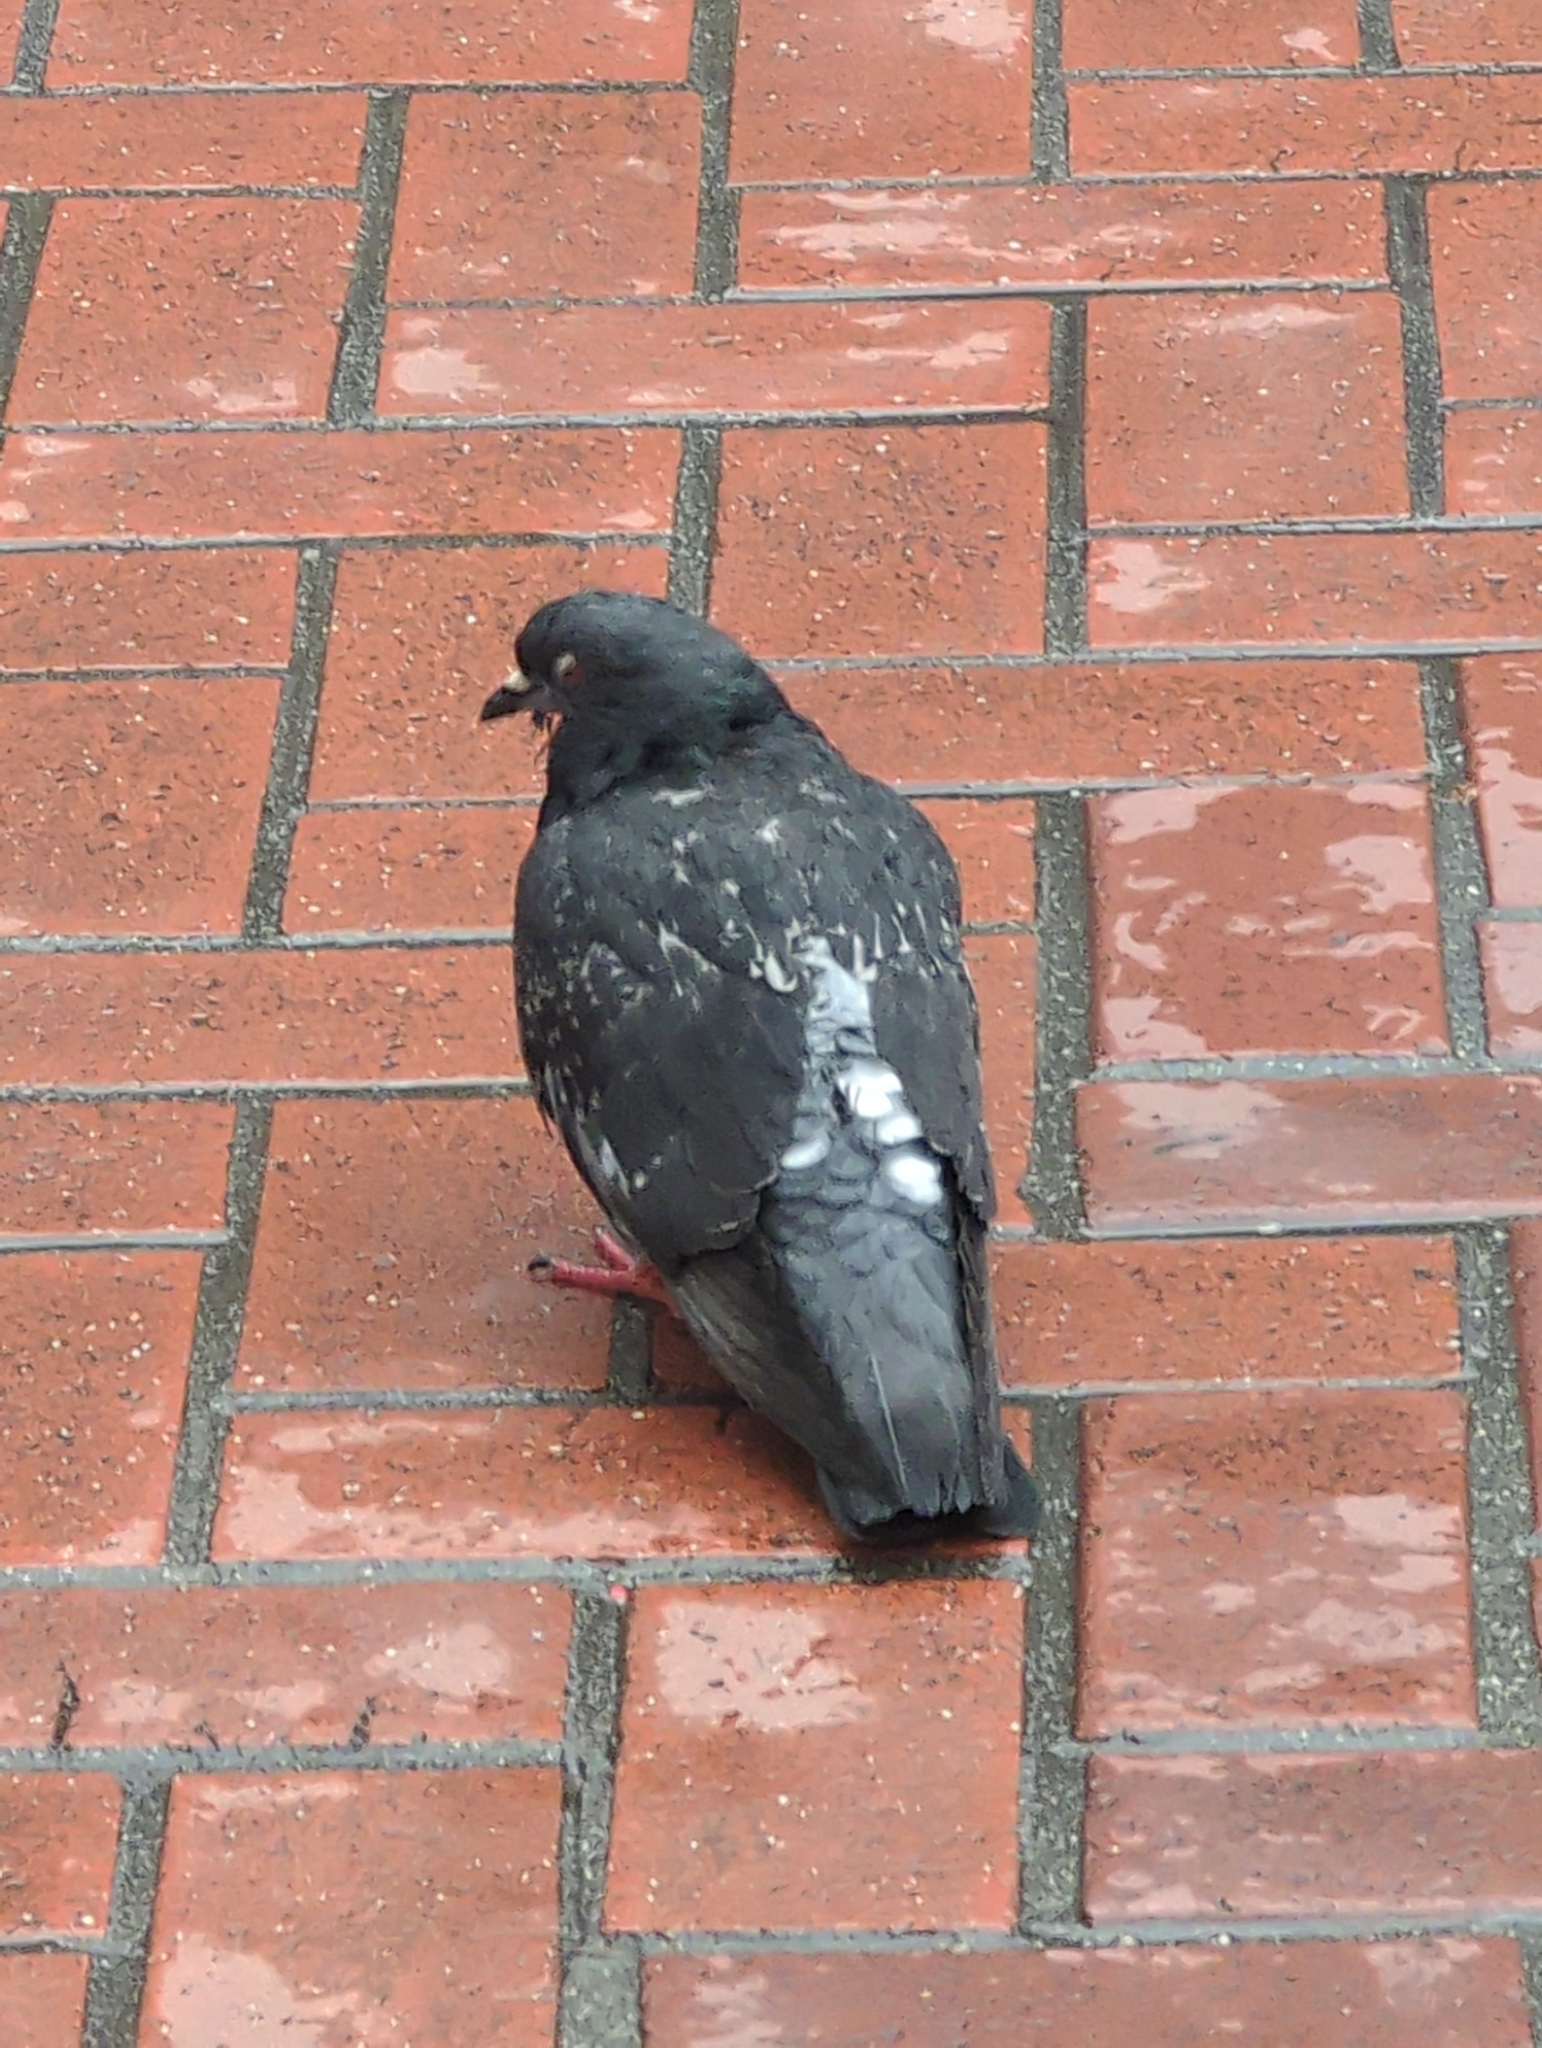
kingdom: Animalia
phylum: Chordata
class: Aves
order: Columbiformes
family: Columbidae
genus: Columba
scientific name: Columba livia
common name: Rock pigeon
